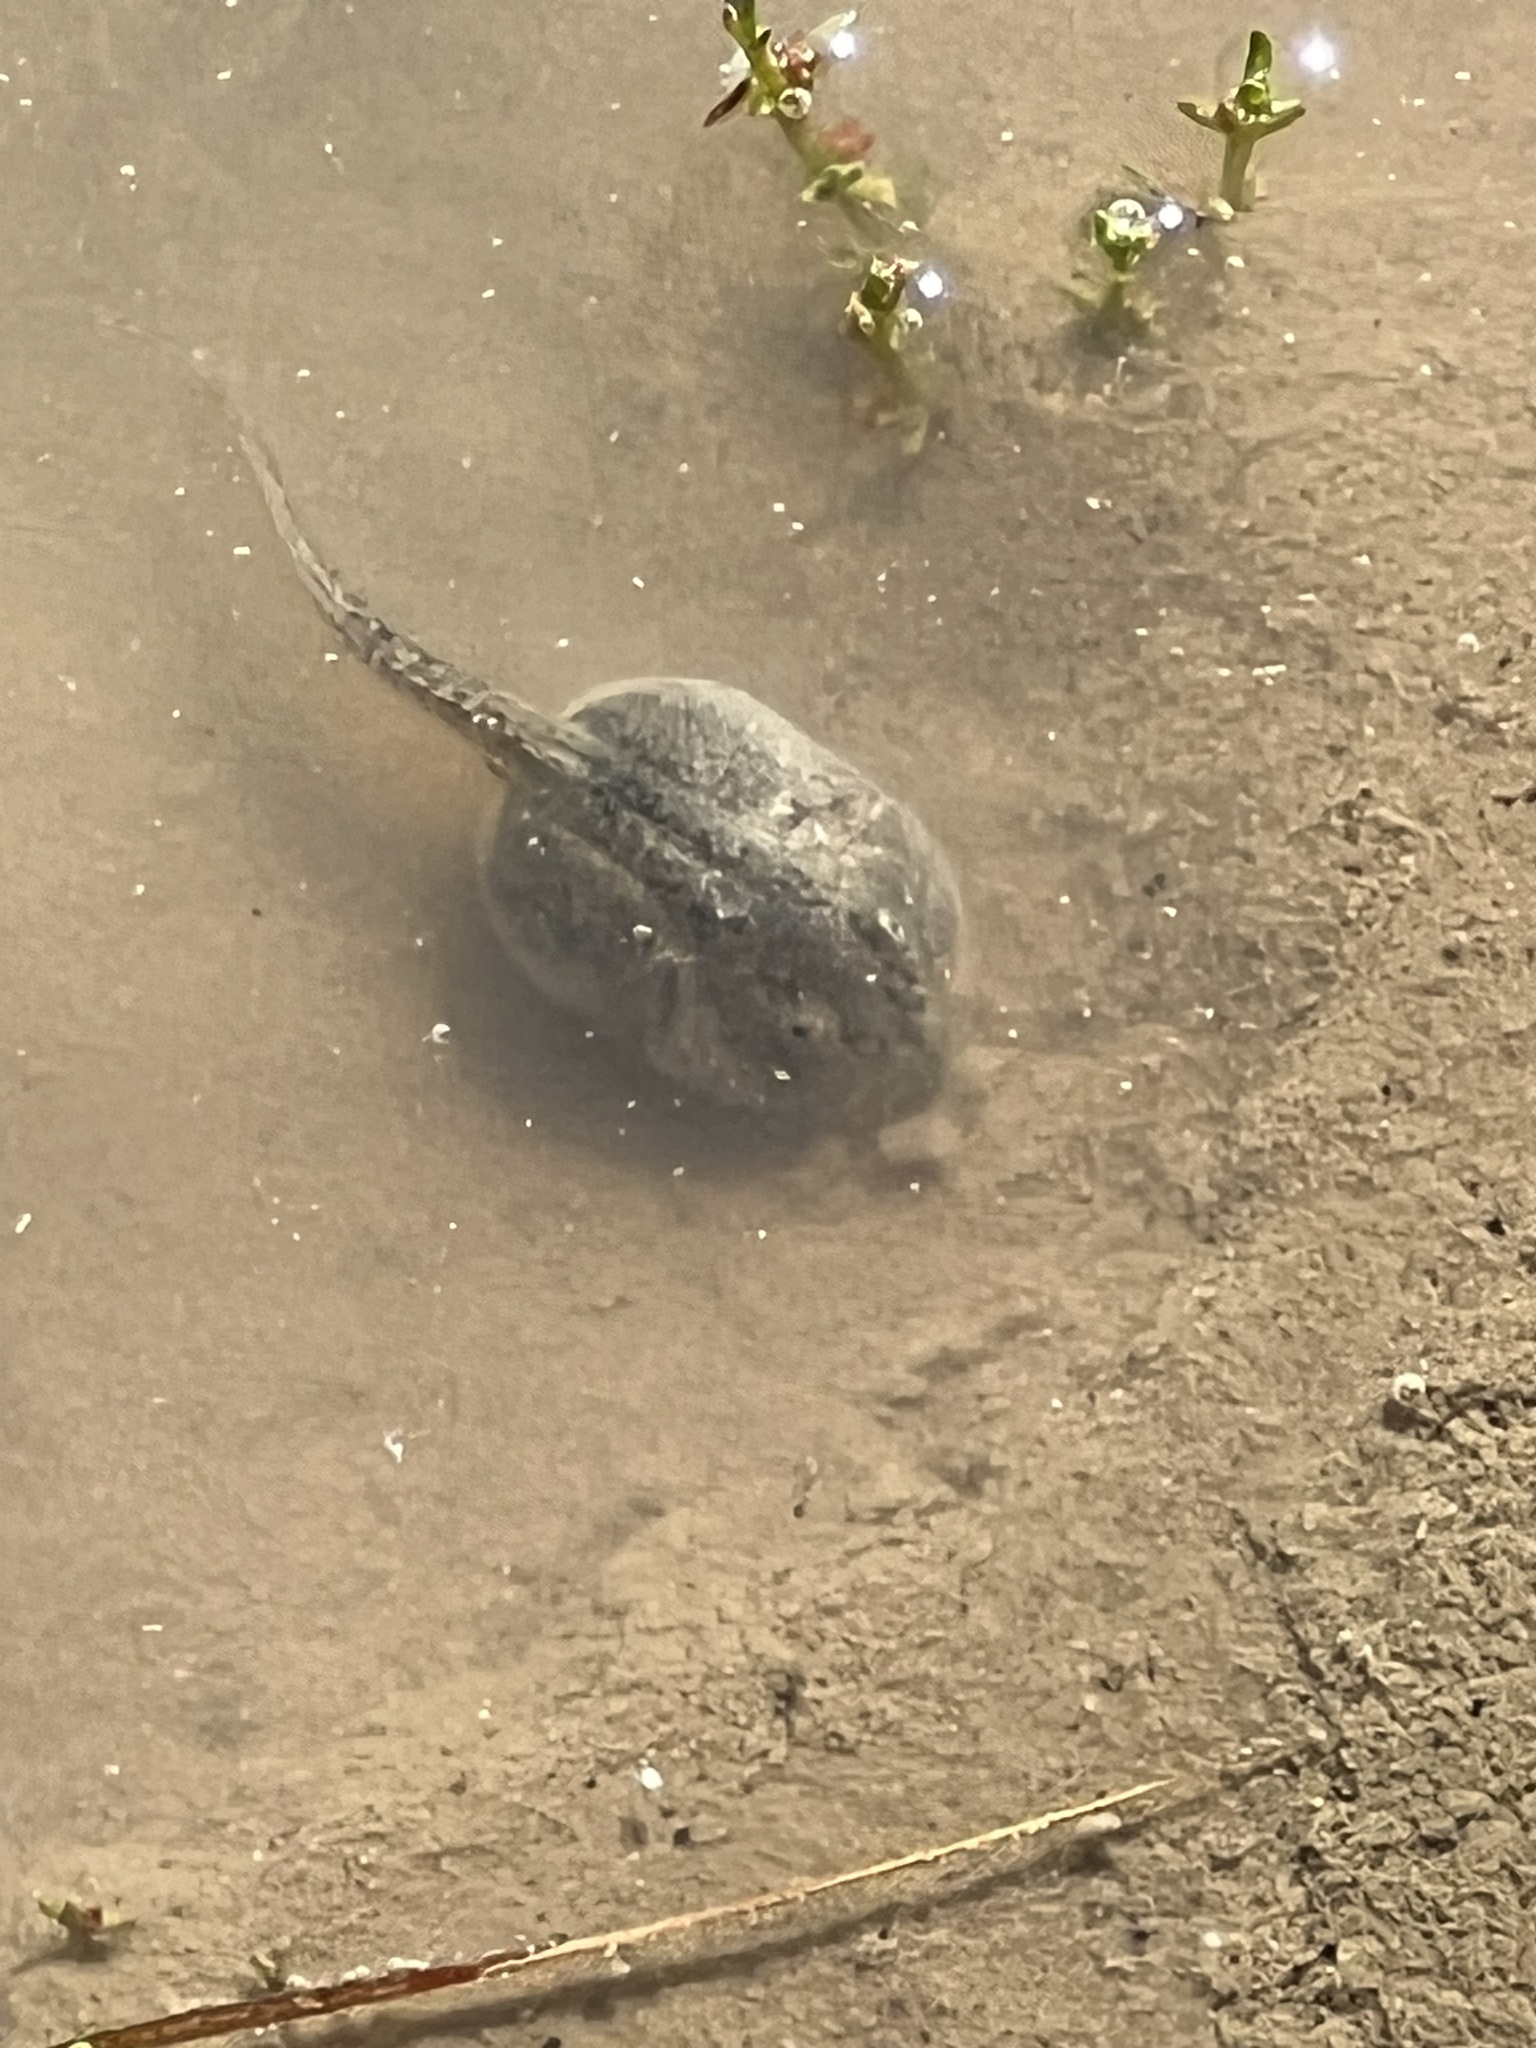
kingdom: Animalia
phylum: Chordata
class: Amphibia
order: Anura
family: Scaphiopodidae
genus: Spea
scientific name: Spea hammondii
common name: Western spadefoot toad
